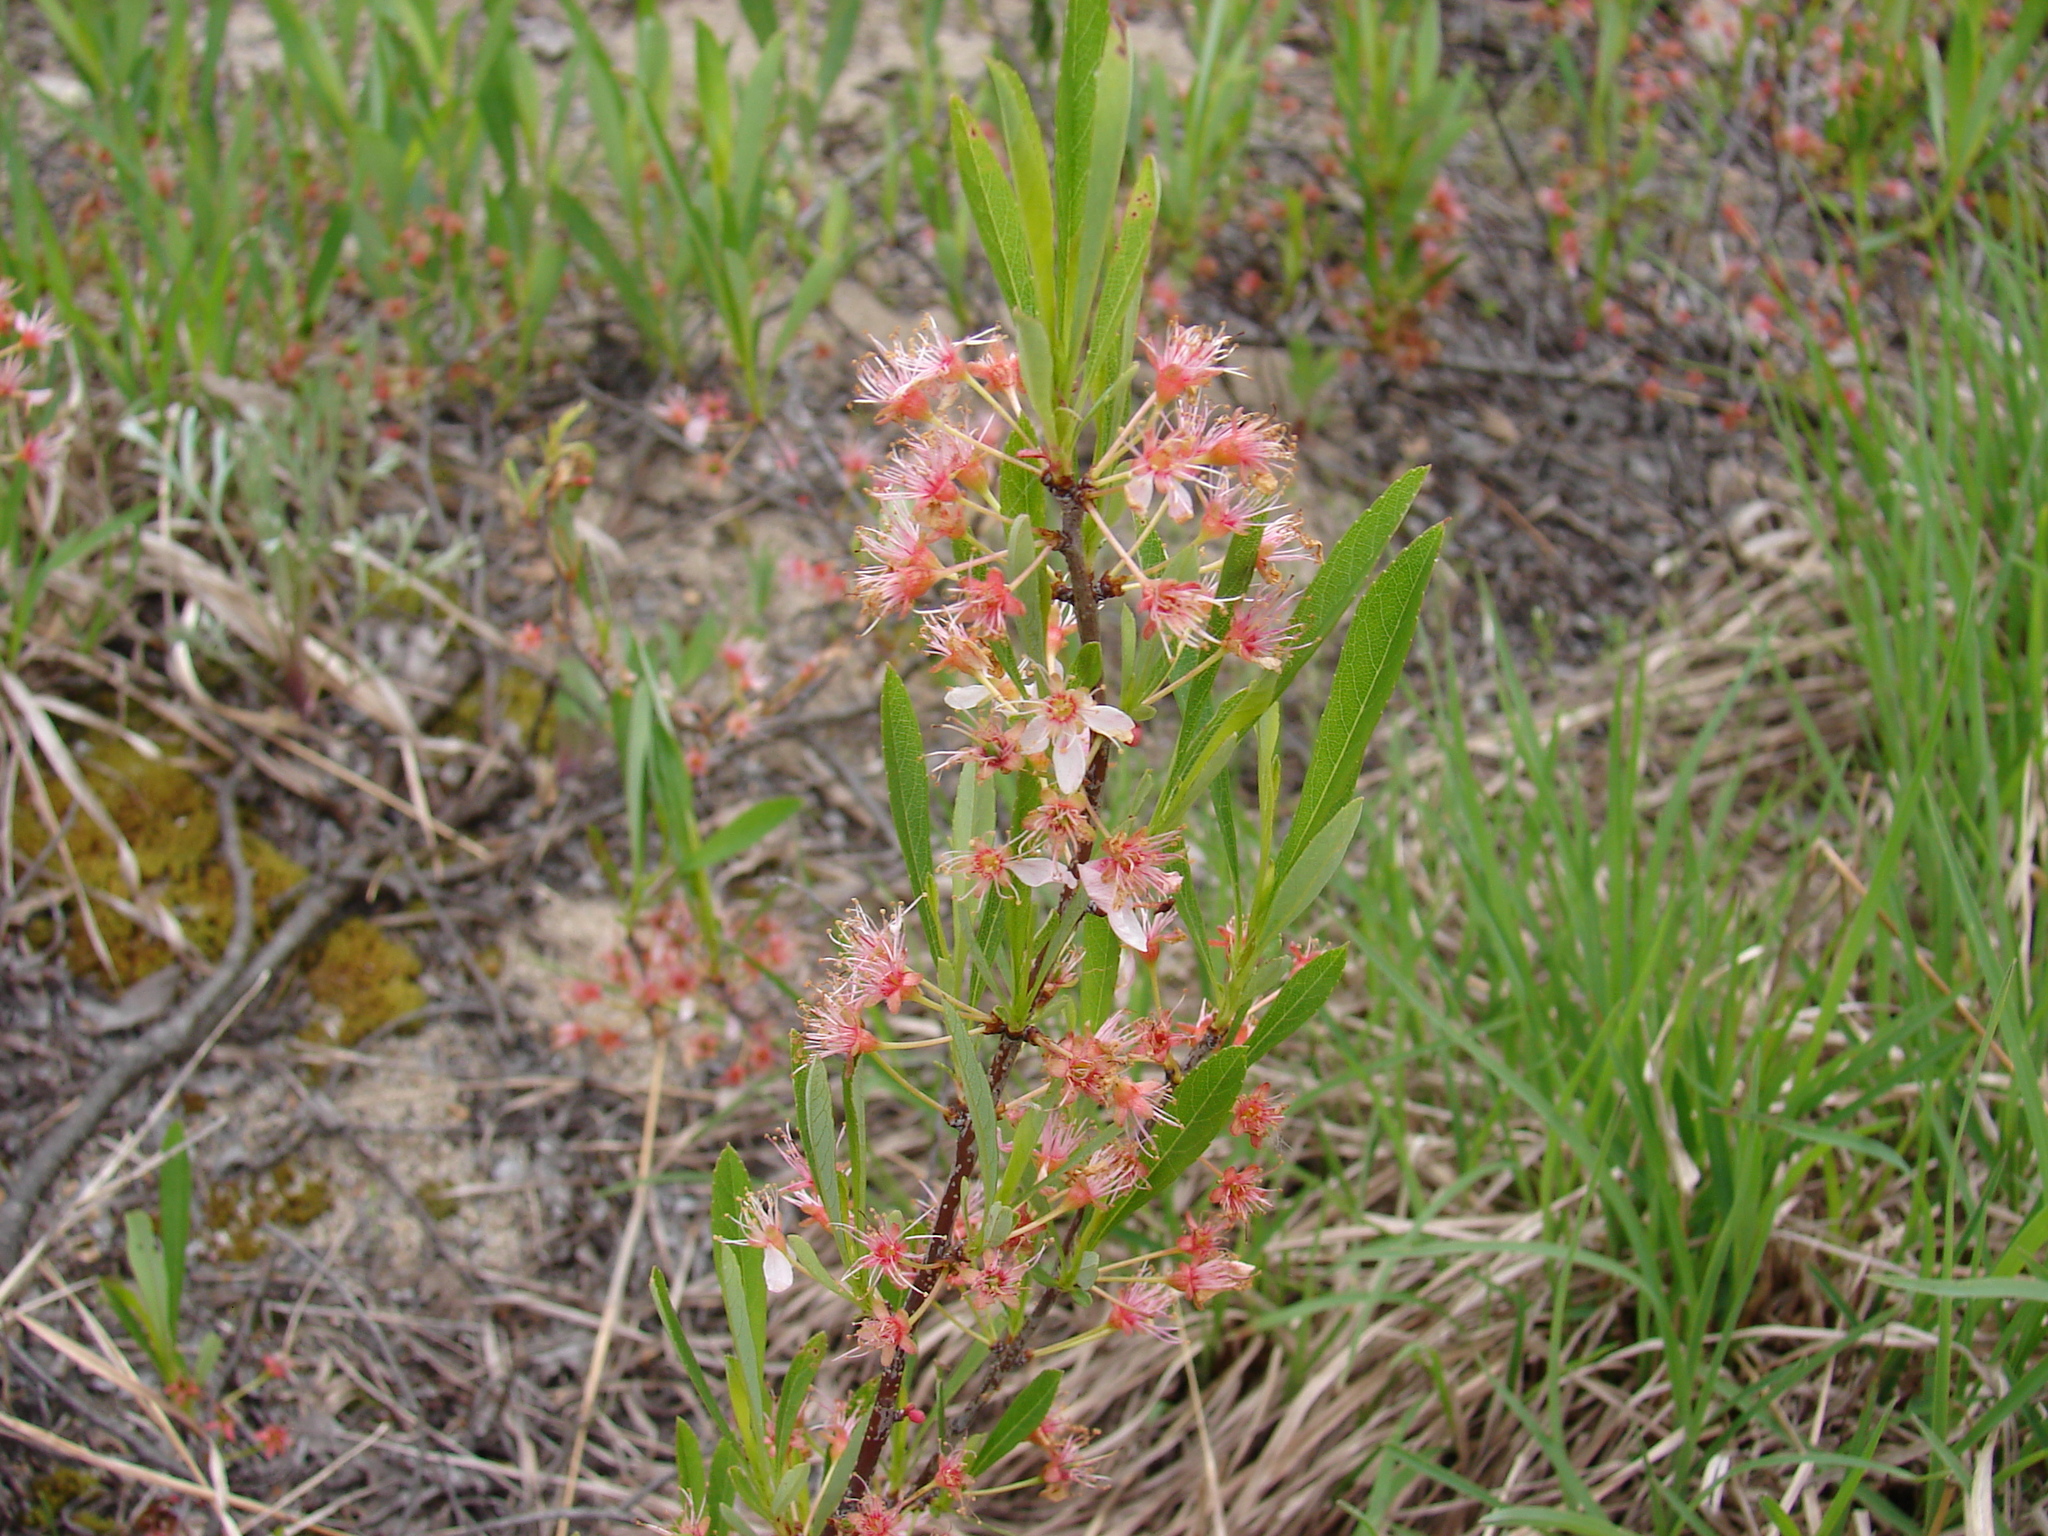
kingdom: Plantae
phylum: Tracheophyta
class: Magnoliopsida
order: Rosales
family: Rosaceae
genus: Prunus
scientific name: Prunus pumila
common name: Dwarf cherry
